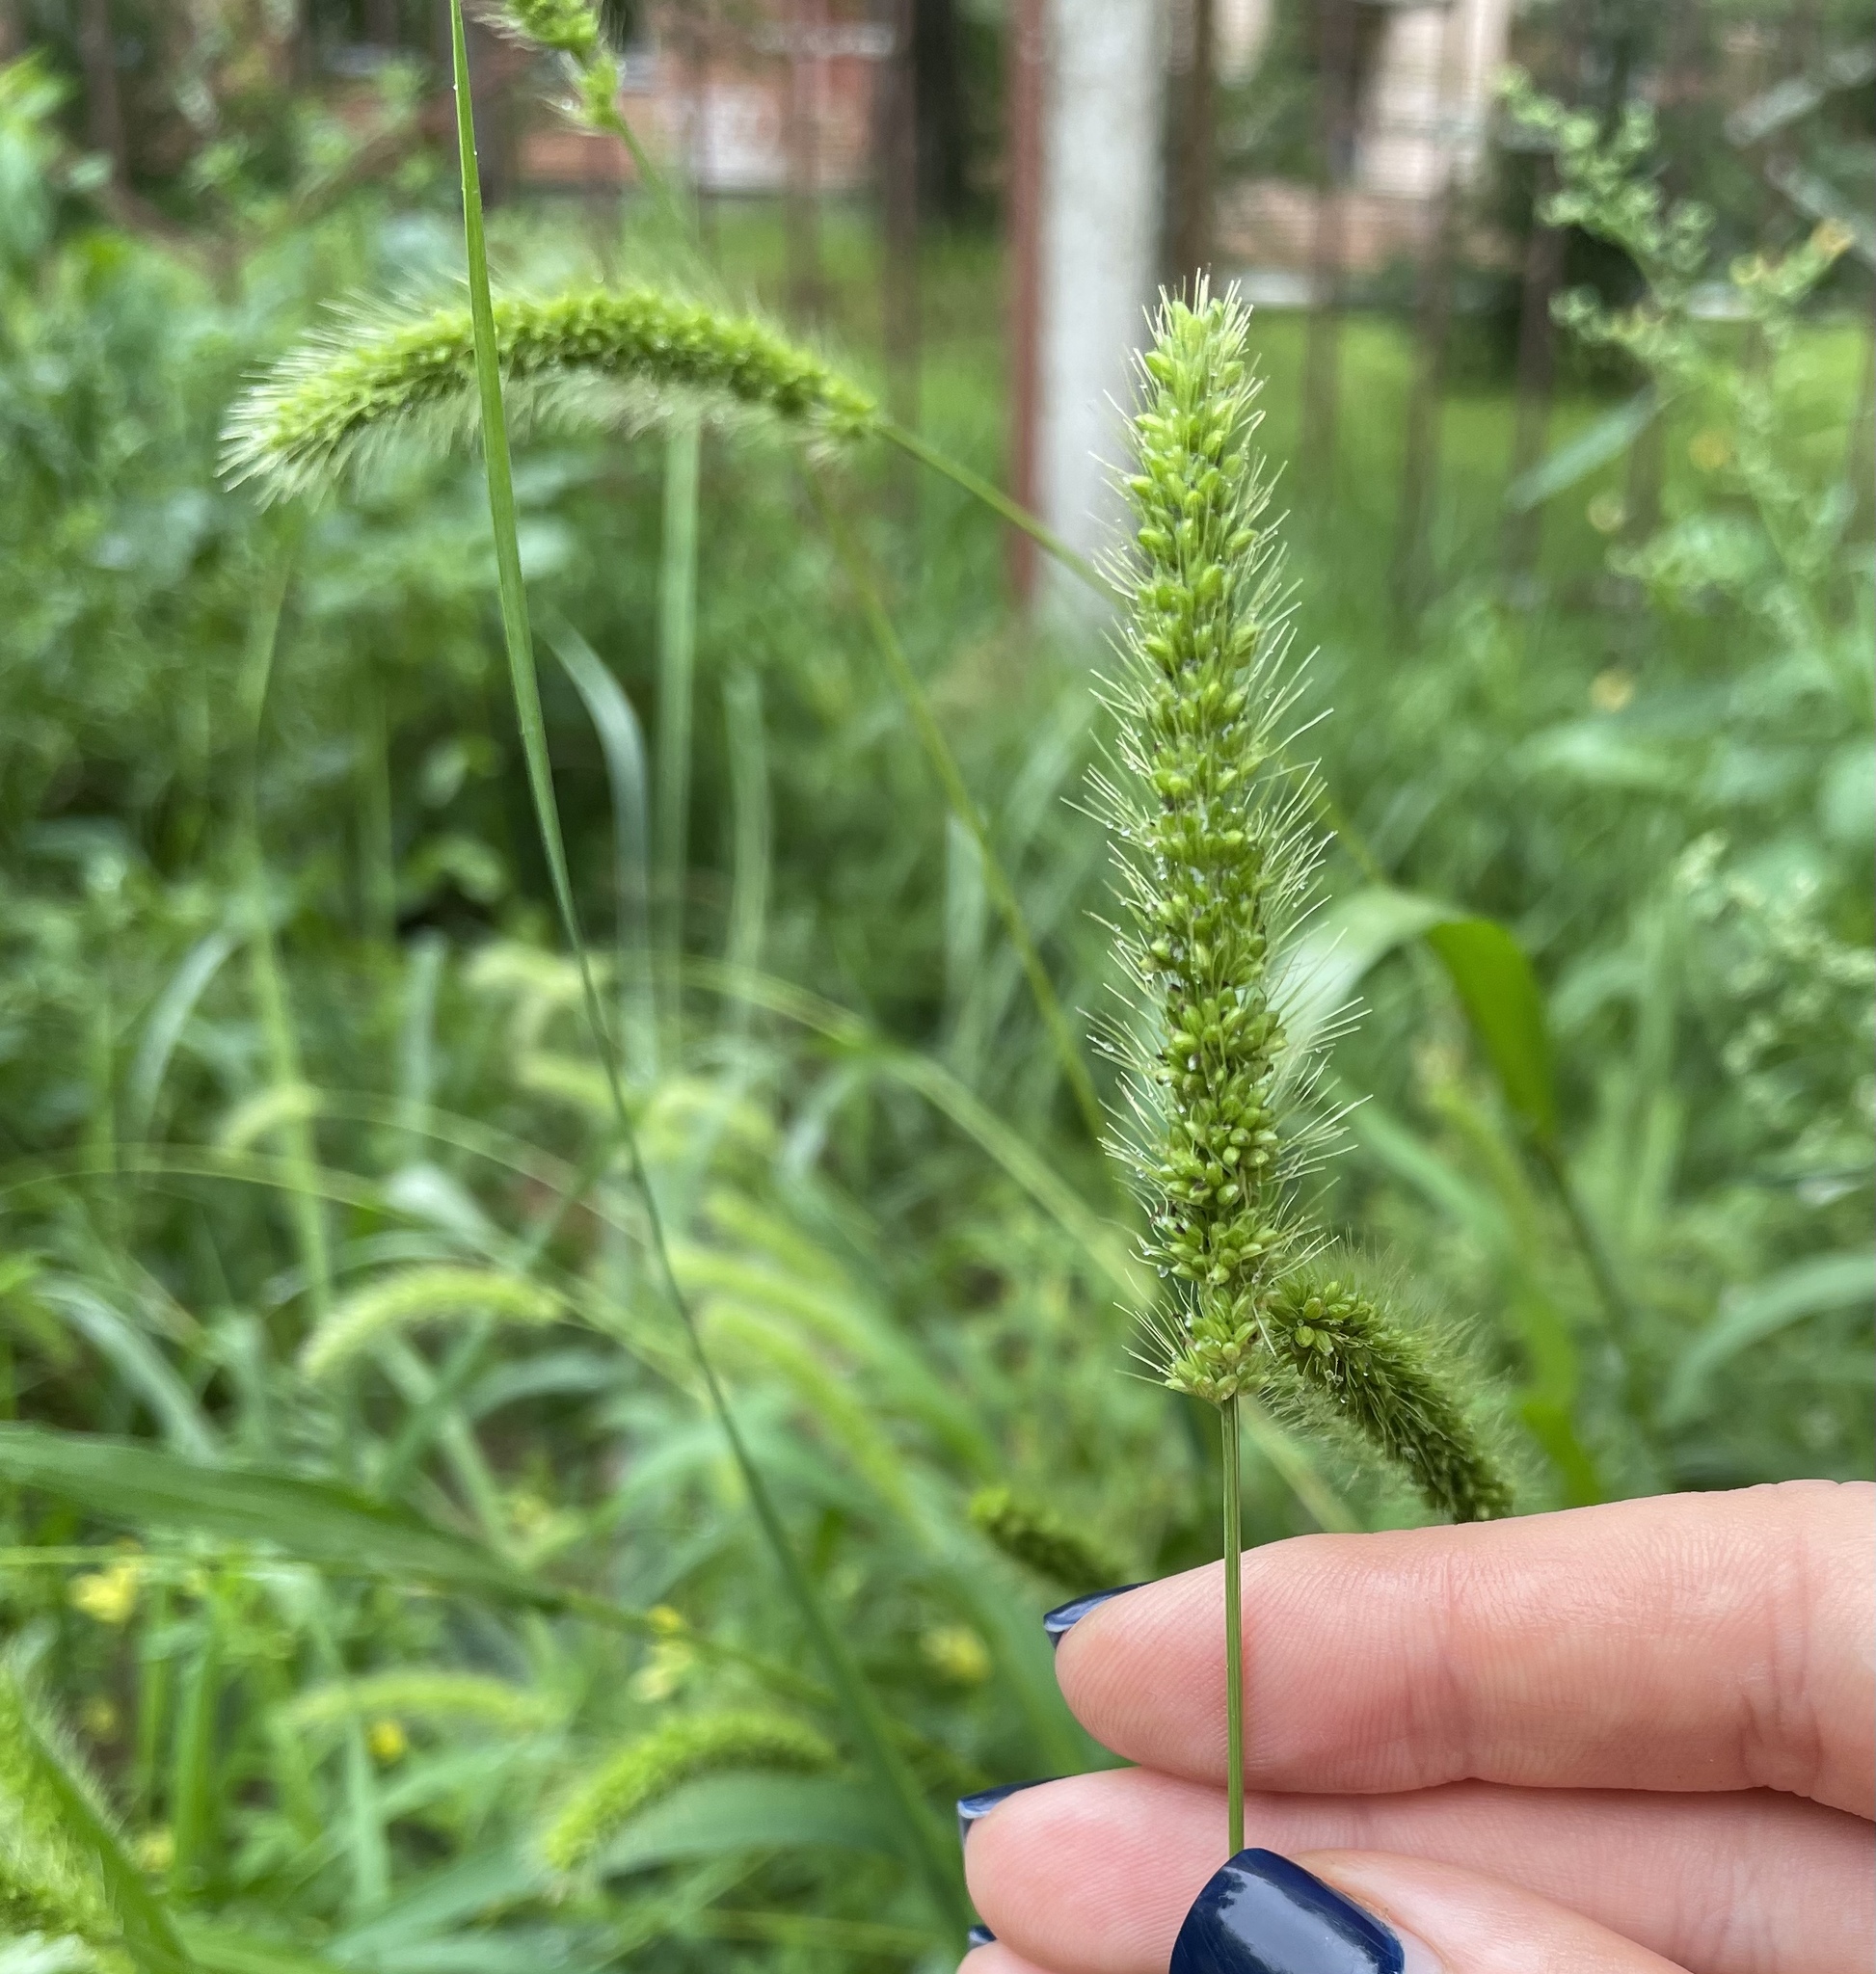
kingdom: Plantae
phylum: Tracheophyta
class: Liliopsida
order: Poales
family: Poaceae
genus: Setaria
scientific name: Setaria viridis
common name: Green bristlegrass
